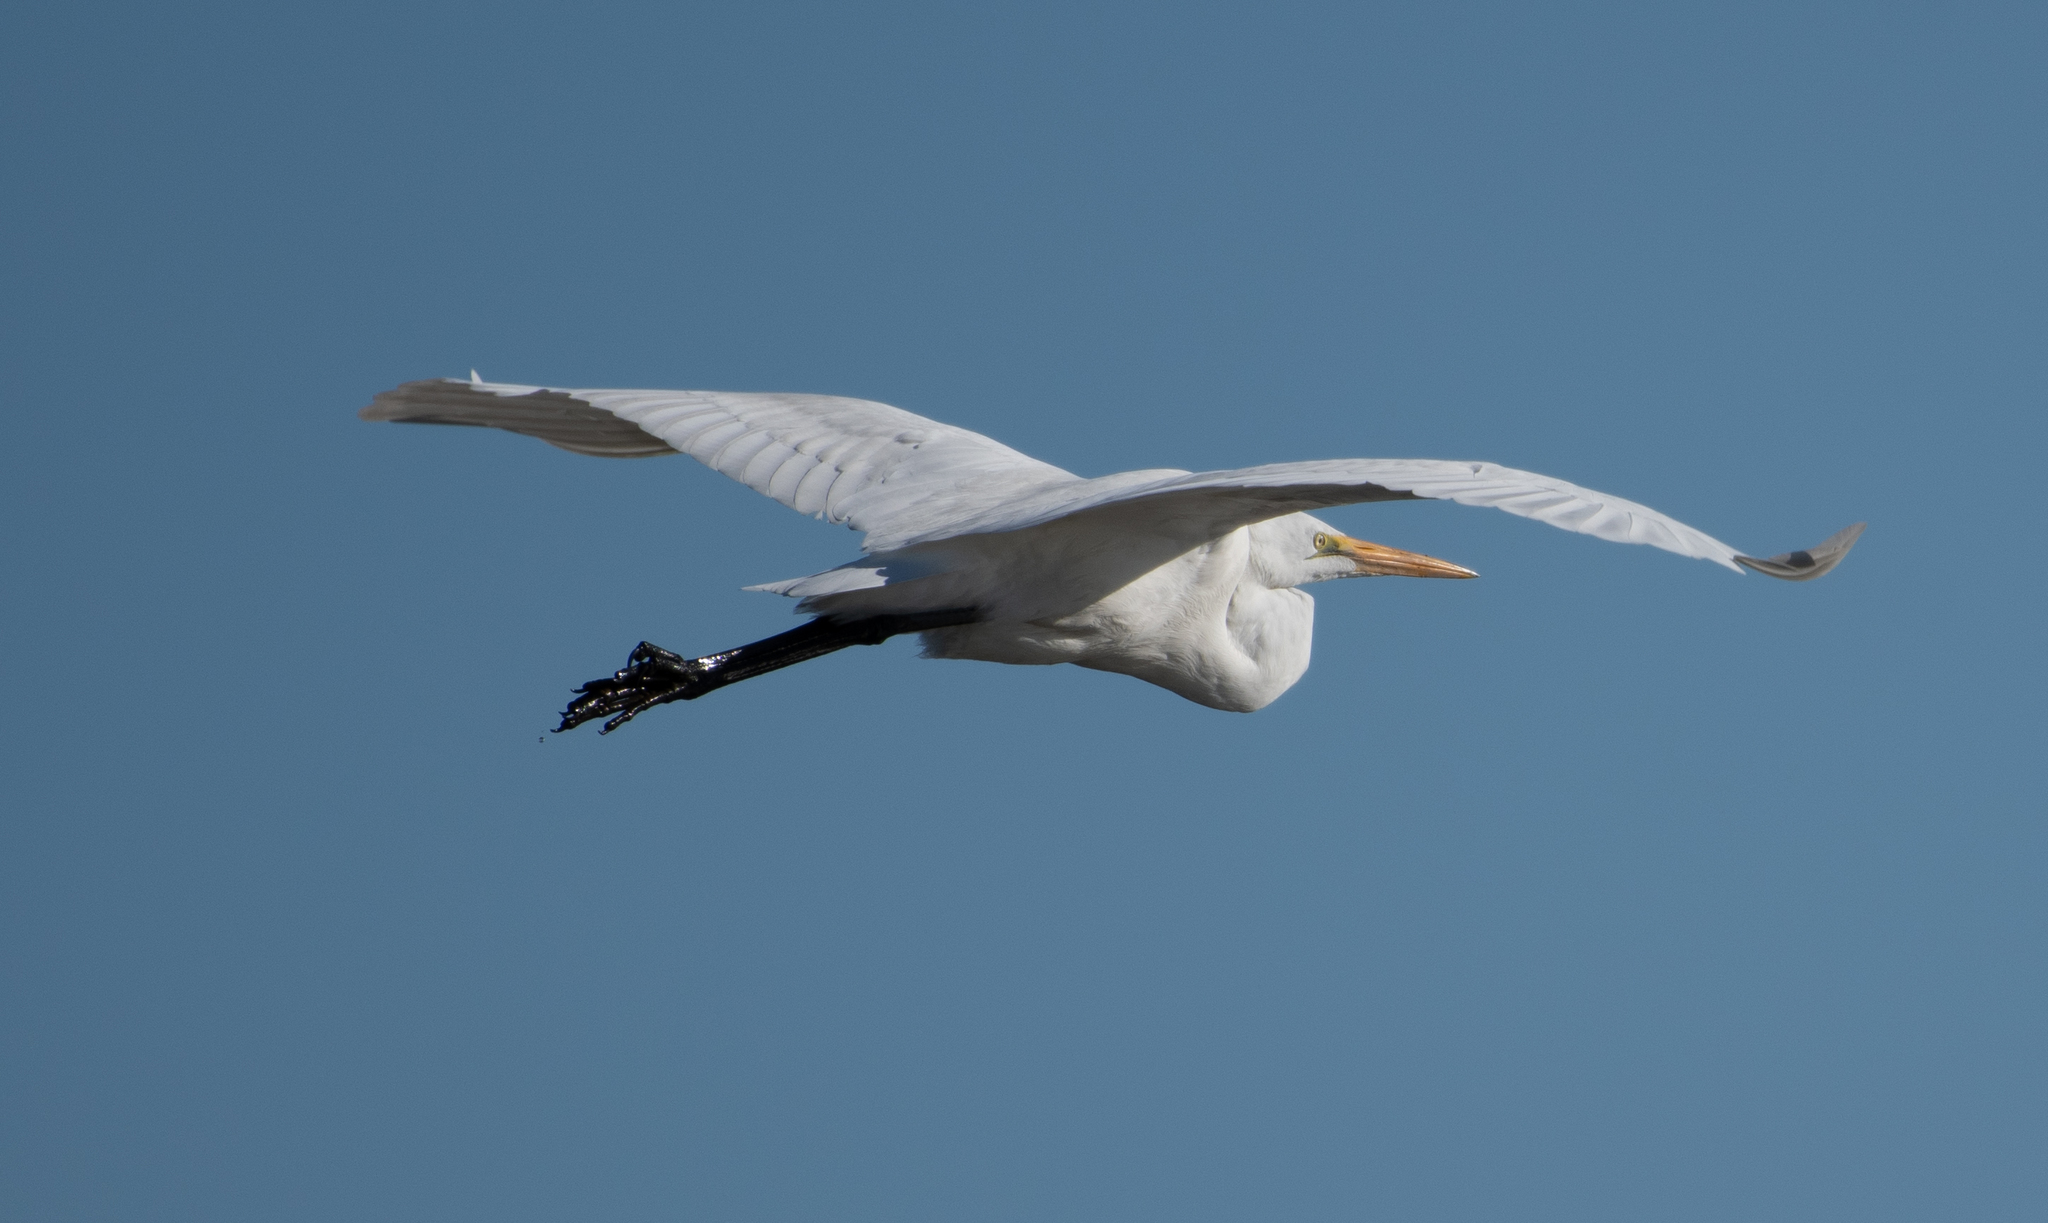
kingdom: Animalia
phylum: Chordata
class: Aves
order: Pelecaniformes
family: Ardeidae
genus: Ardea
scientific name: Ardea alba
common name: Great egret
